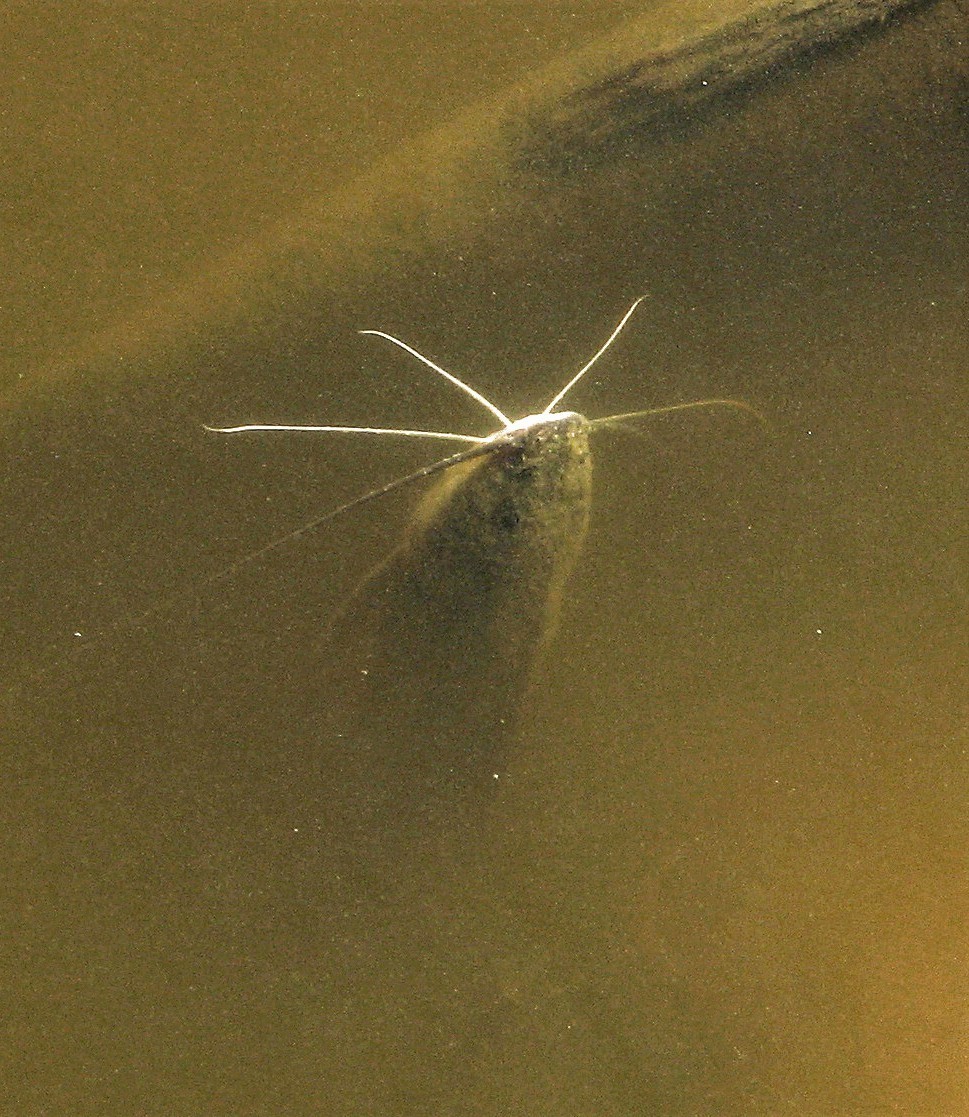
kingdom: Animalia
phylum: Chordata
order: Siluriformes
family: Pimelodidae
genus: Pimelodus
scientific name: Pimelodus albicans
